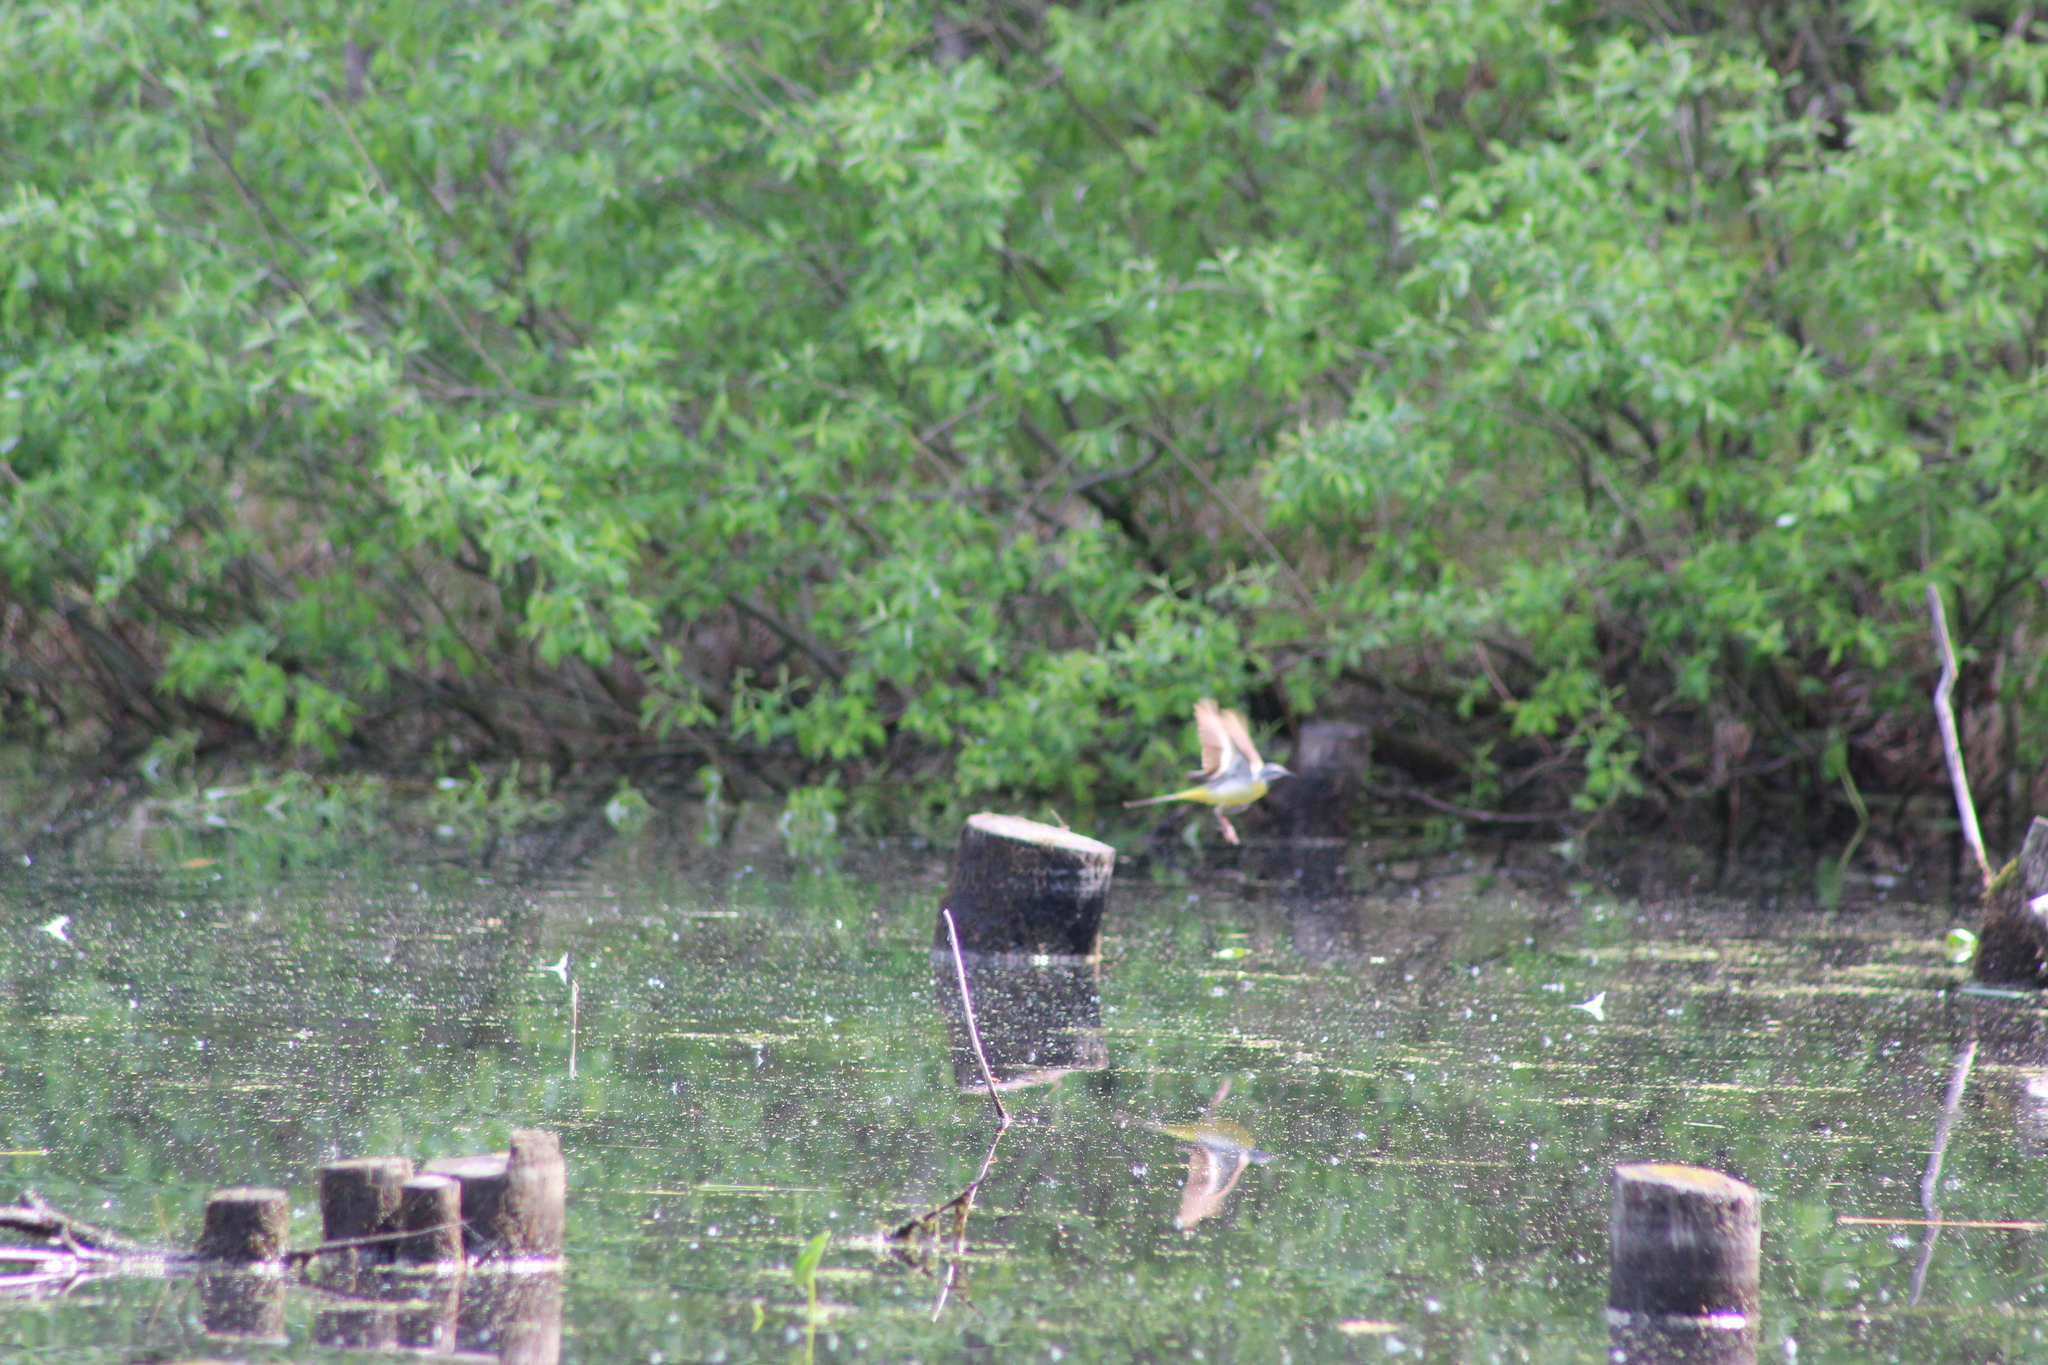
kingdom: Animalia
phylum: Chordata
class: Aves
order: Passeriformes
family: Motacillidae
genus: Motacilla
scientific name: Motacilla cinerea
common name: Grey wagtail
